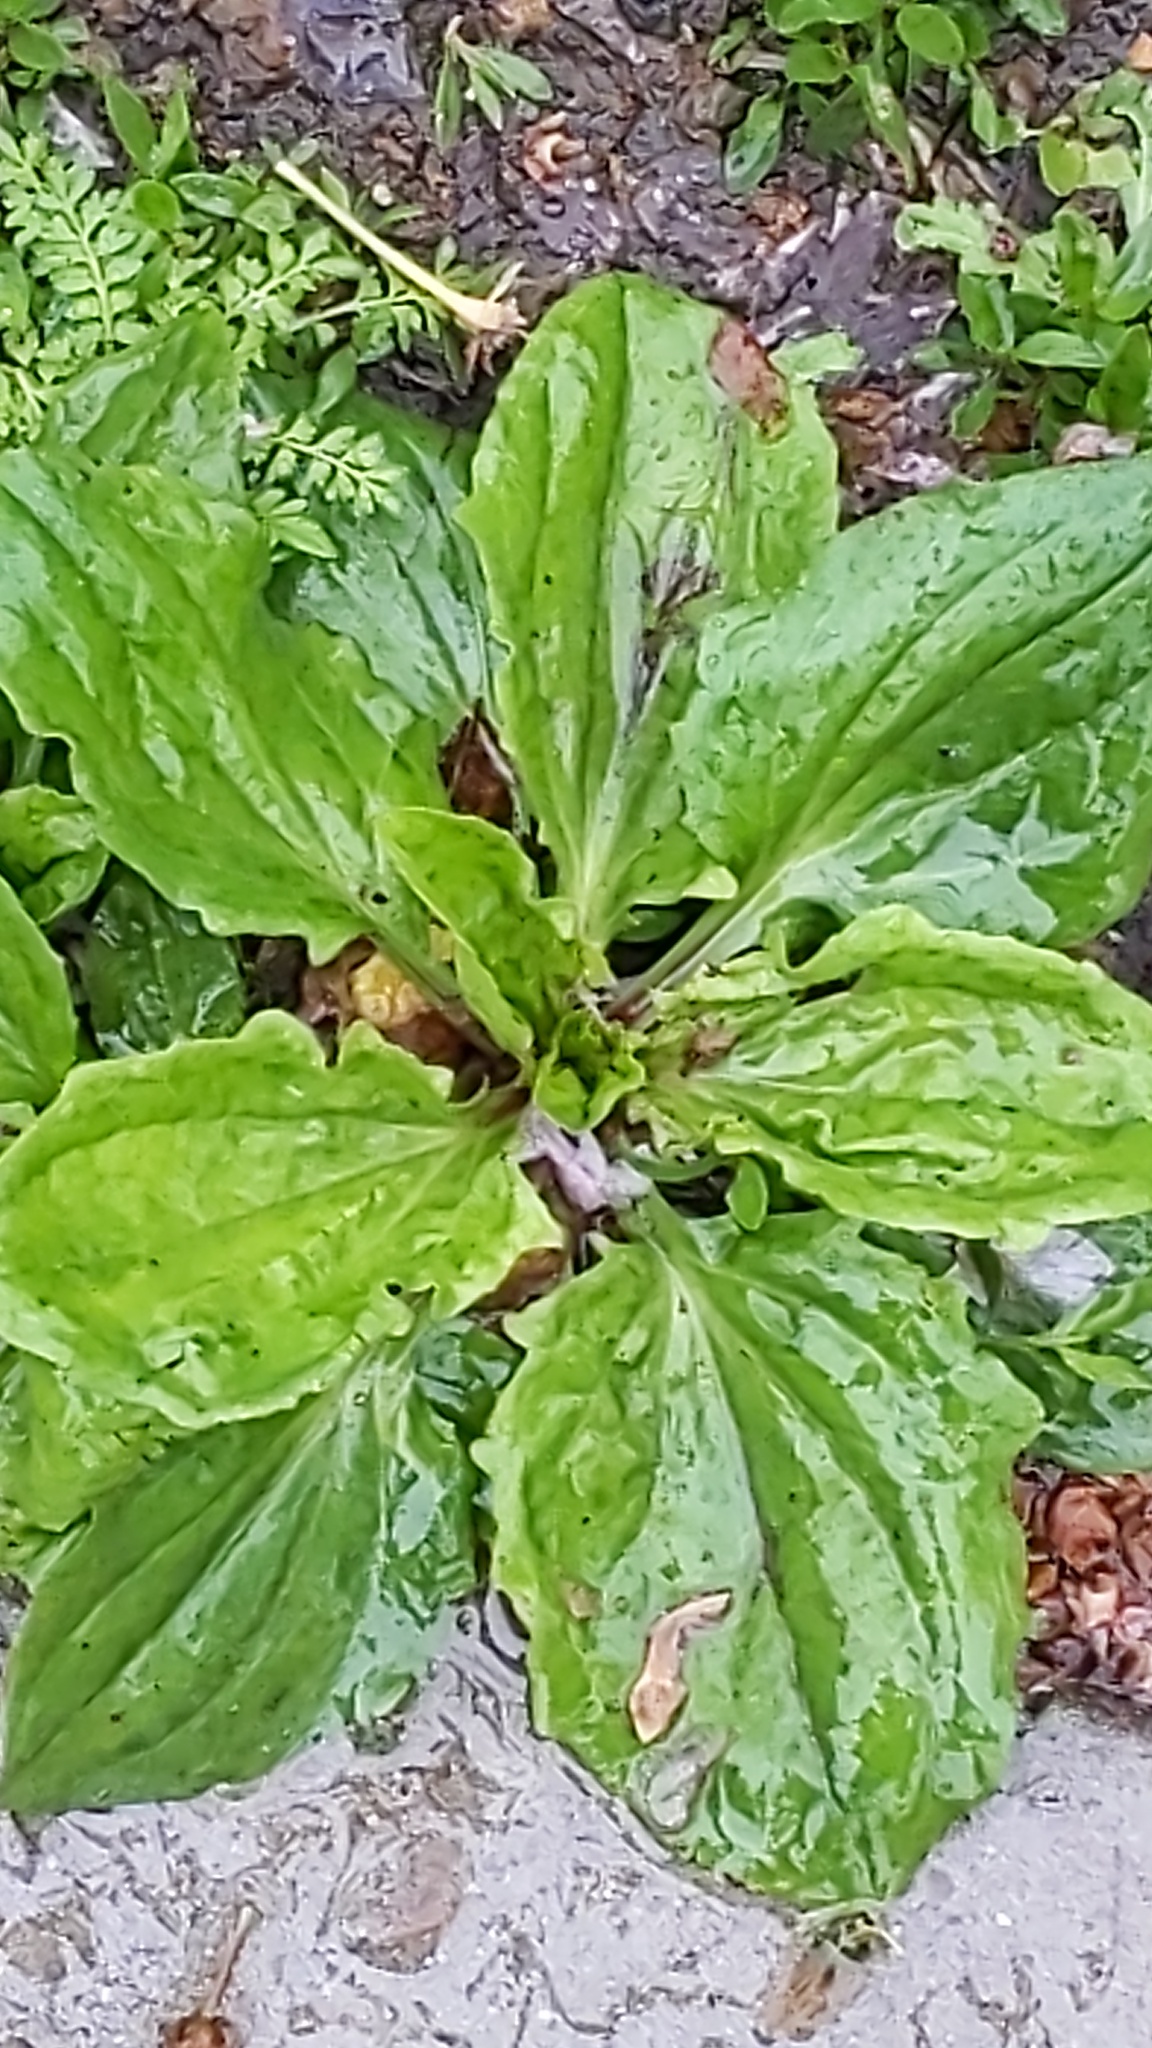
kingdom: Plantae
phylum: Tracheophyta
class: Magnoliopsida
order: Lamiales
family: Plantaginaceae
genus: Plantago
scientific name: Plantago rugelii
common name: American plantain
